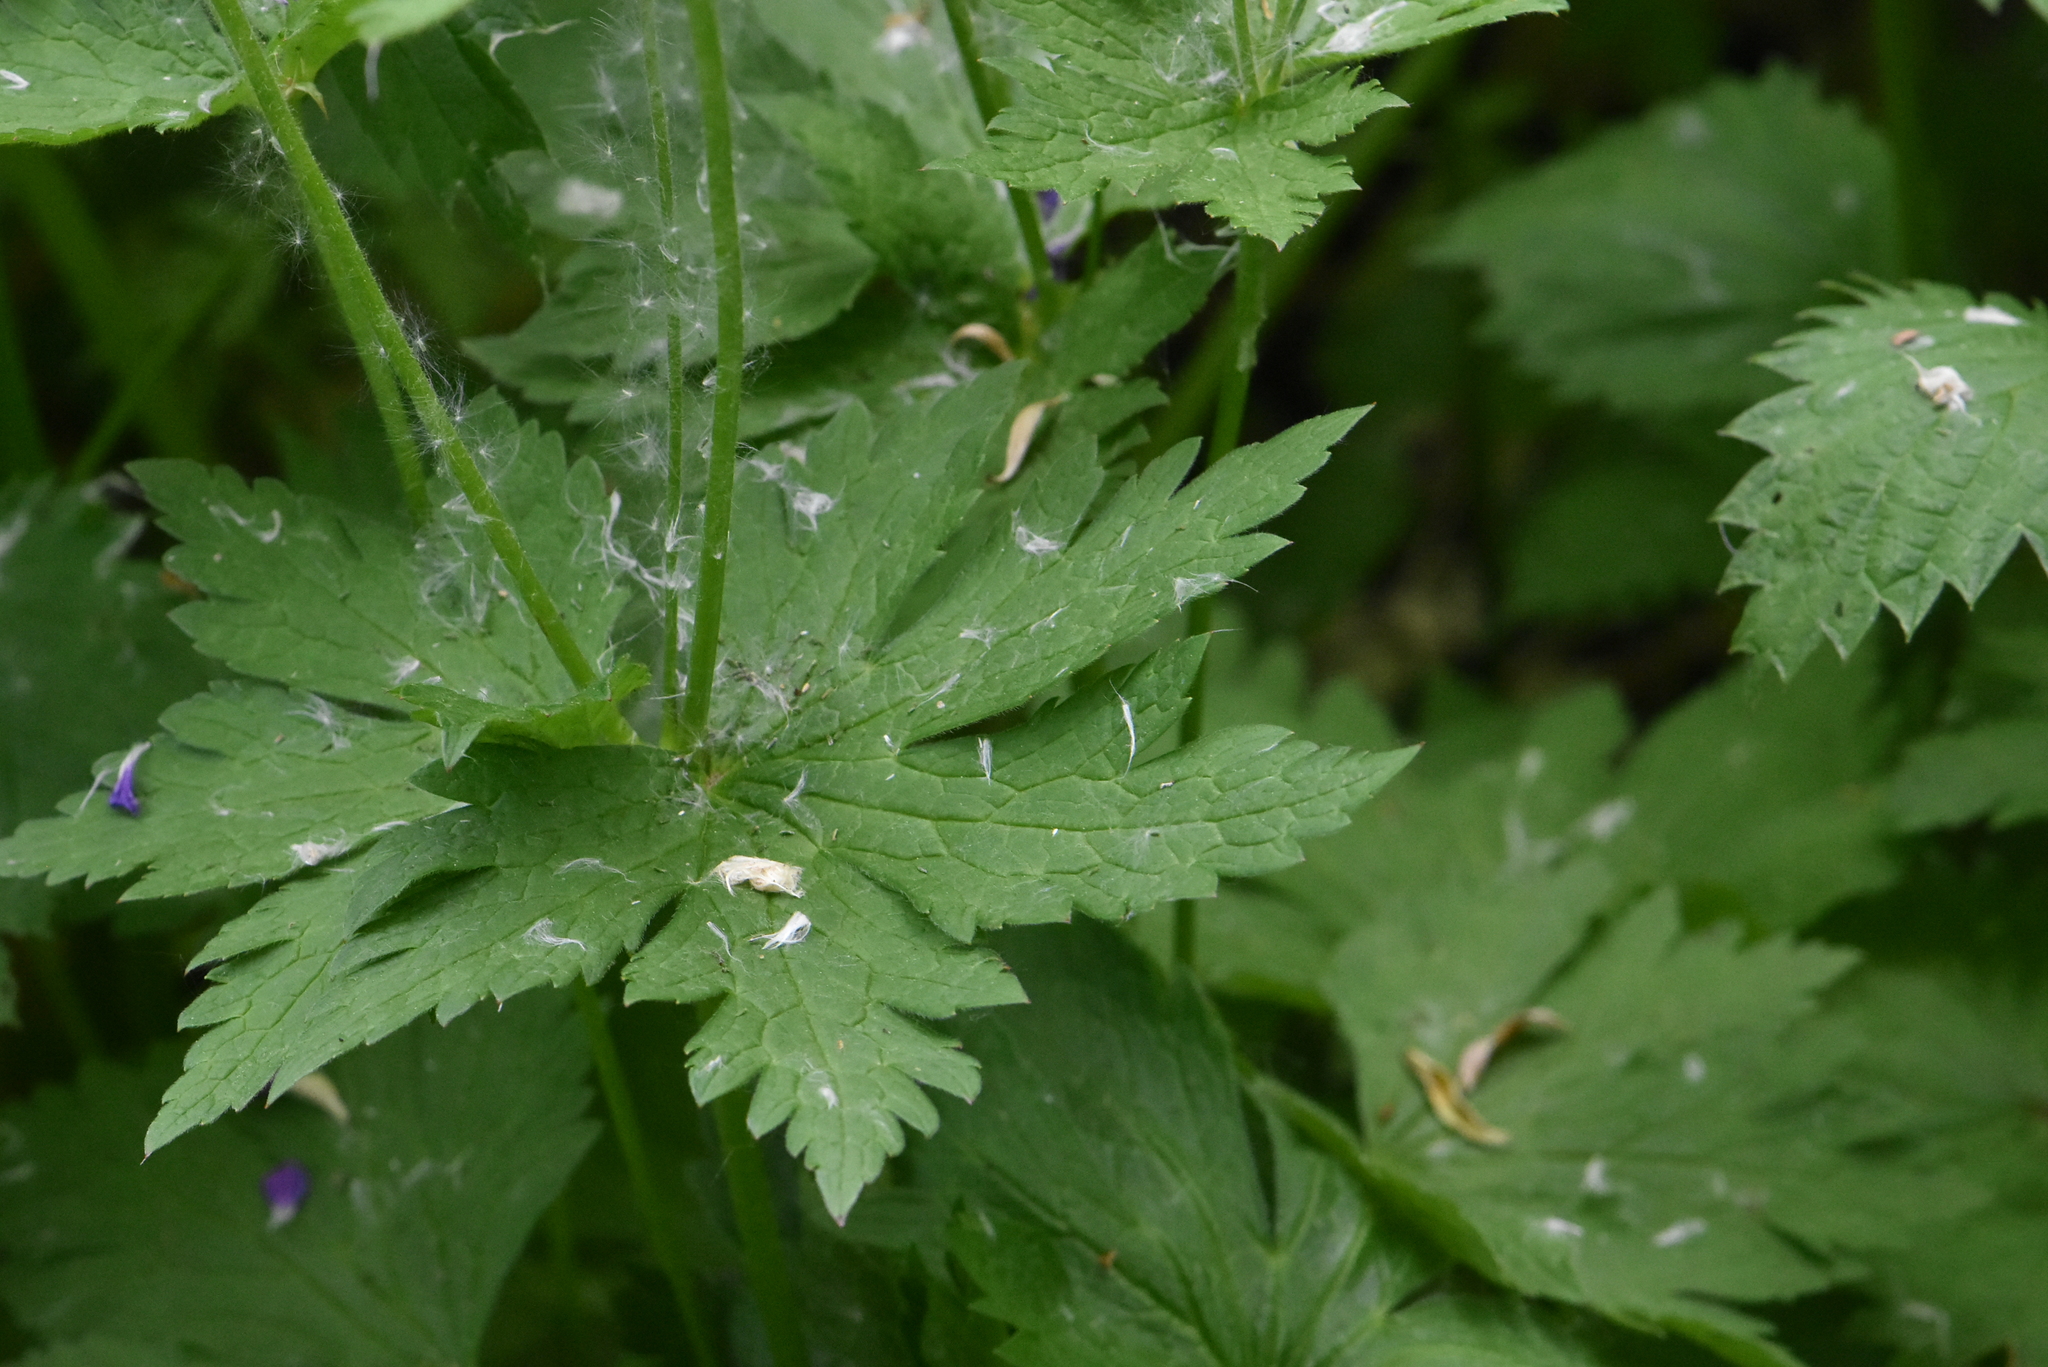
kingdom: Plantae
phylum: Tracheophyta
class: Magnoliopsida
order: Geraniales
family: Geraniaceae
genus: Geranium
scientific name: Geranium sylvaticum
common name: Wood crane's-bill
